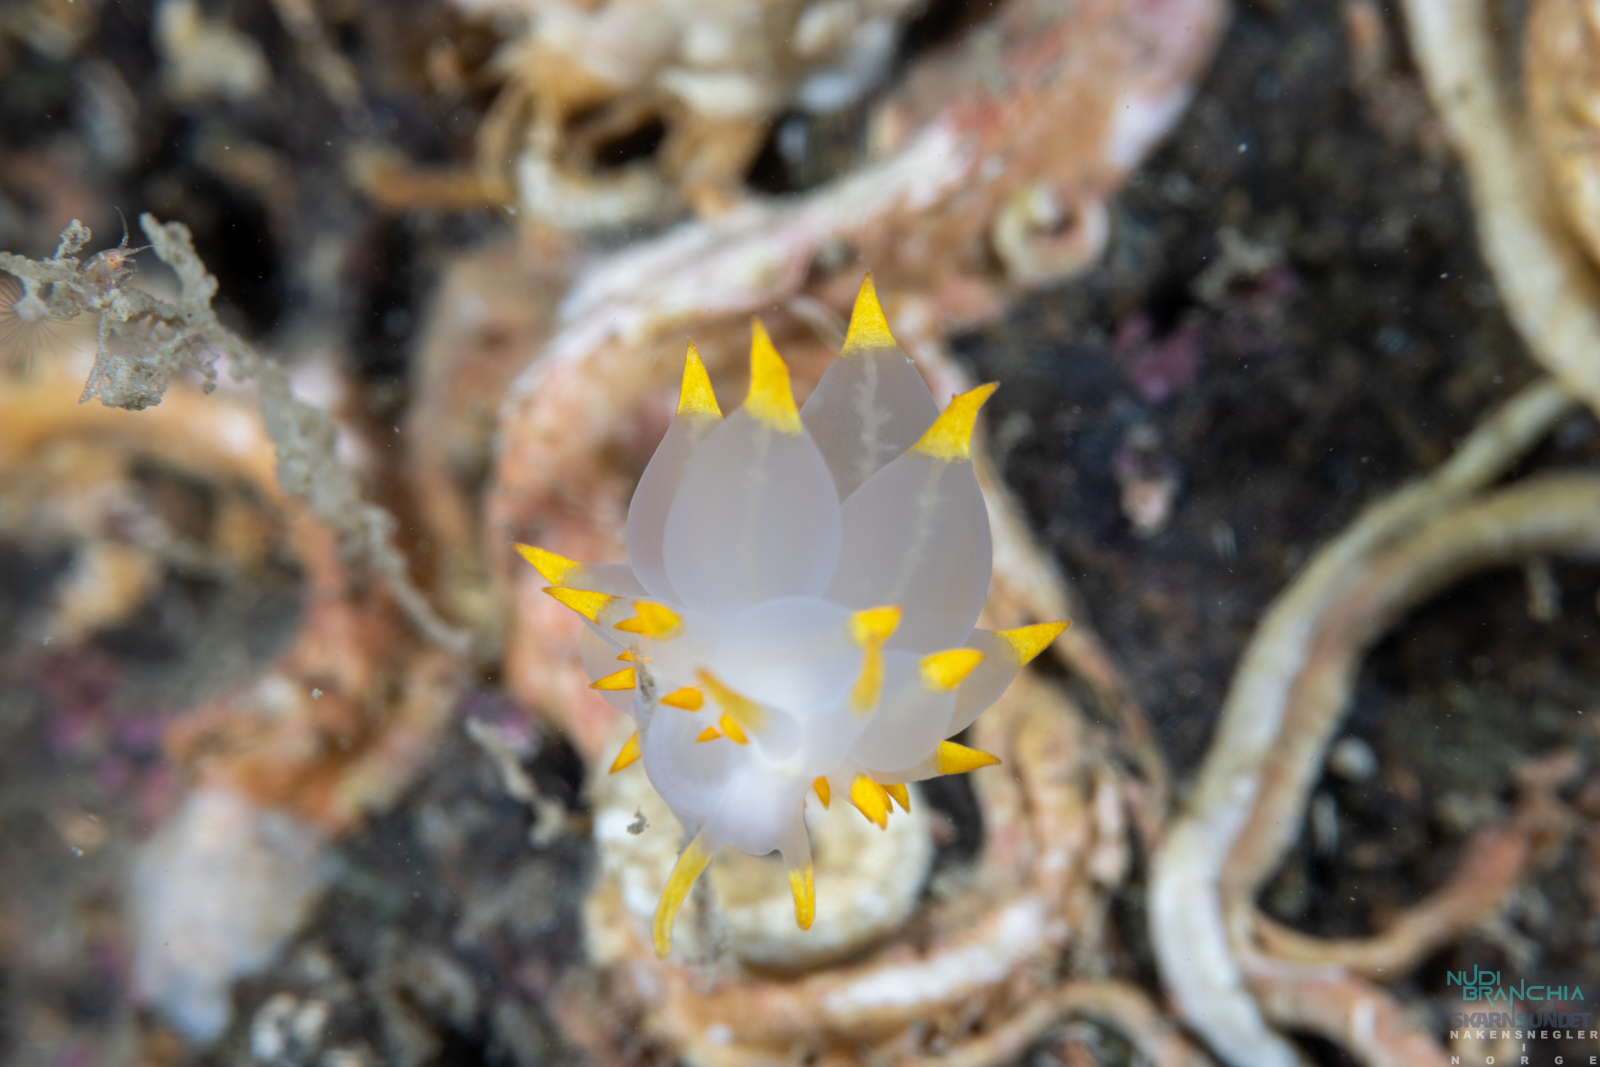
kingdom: Animalia
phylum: Mollusca
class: Gastropoda
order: Nudibranchia
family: Eubranchidae
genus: Amphorina
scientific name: Amphorina farrani
